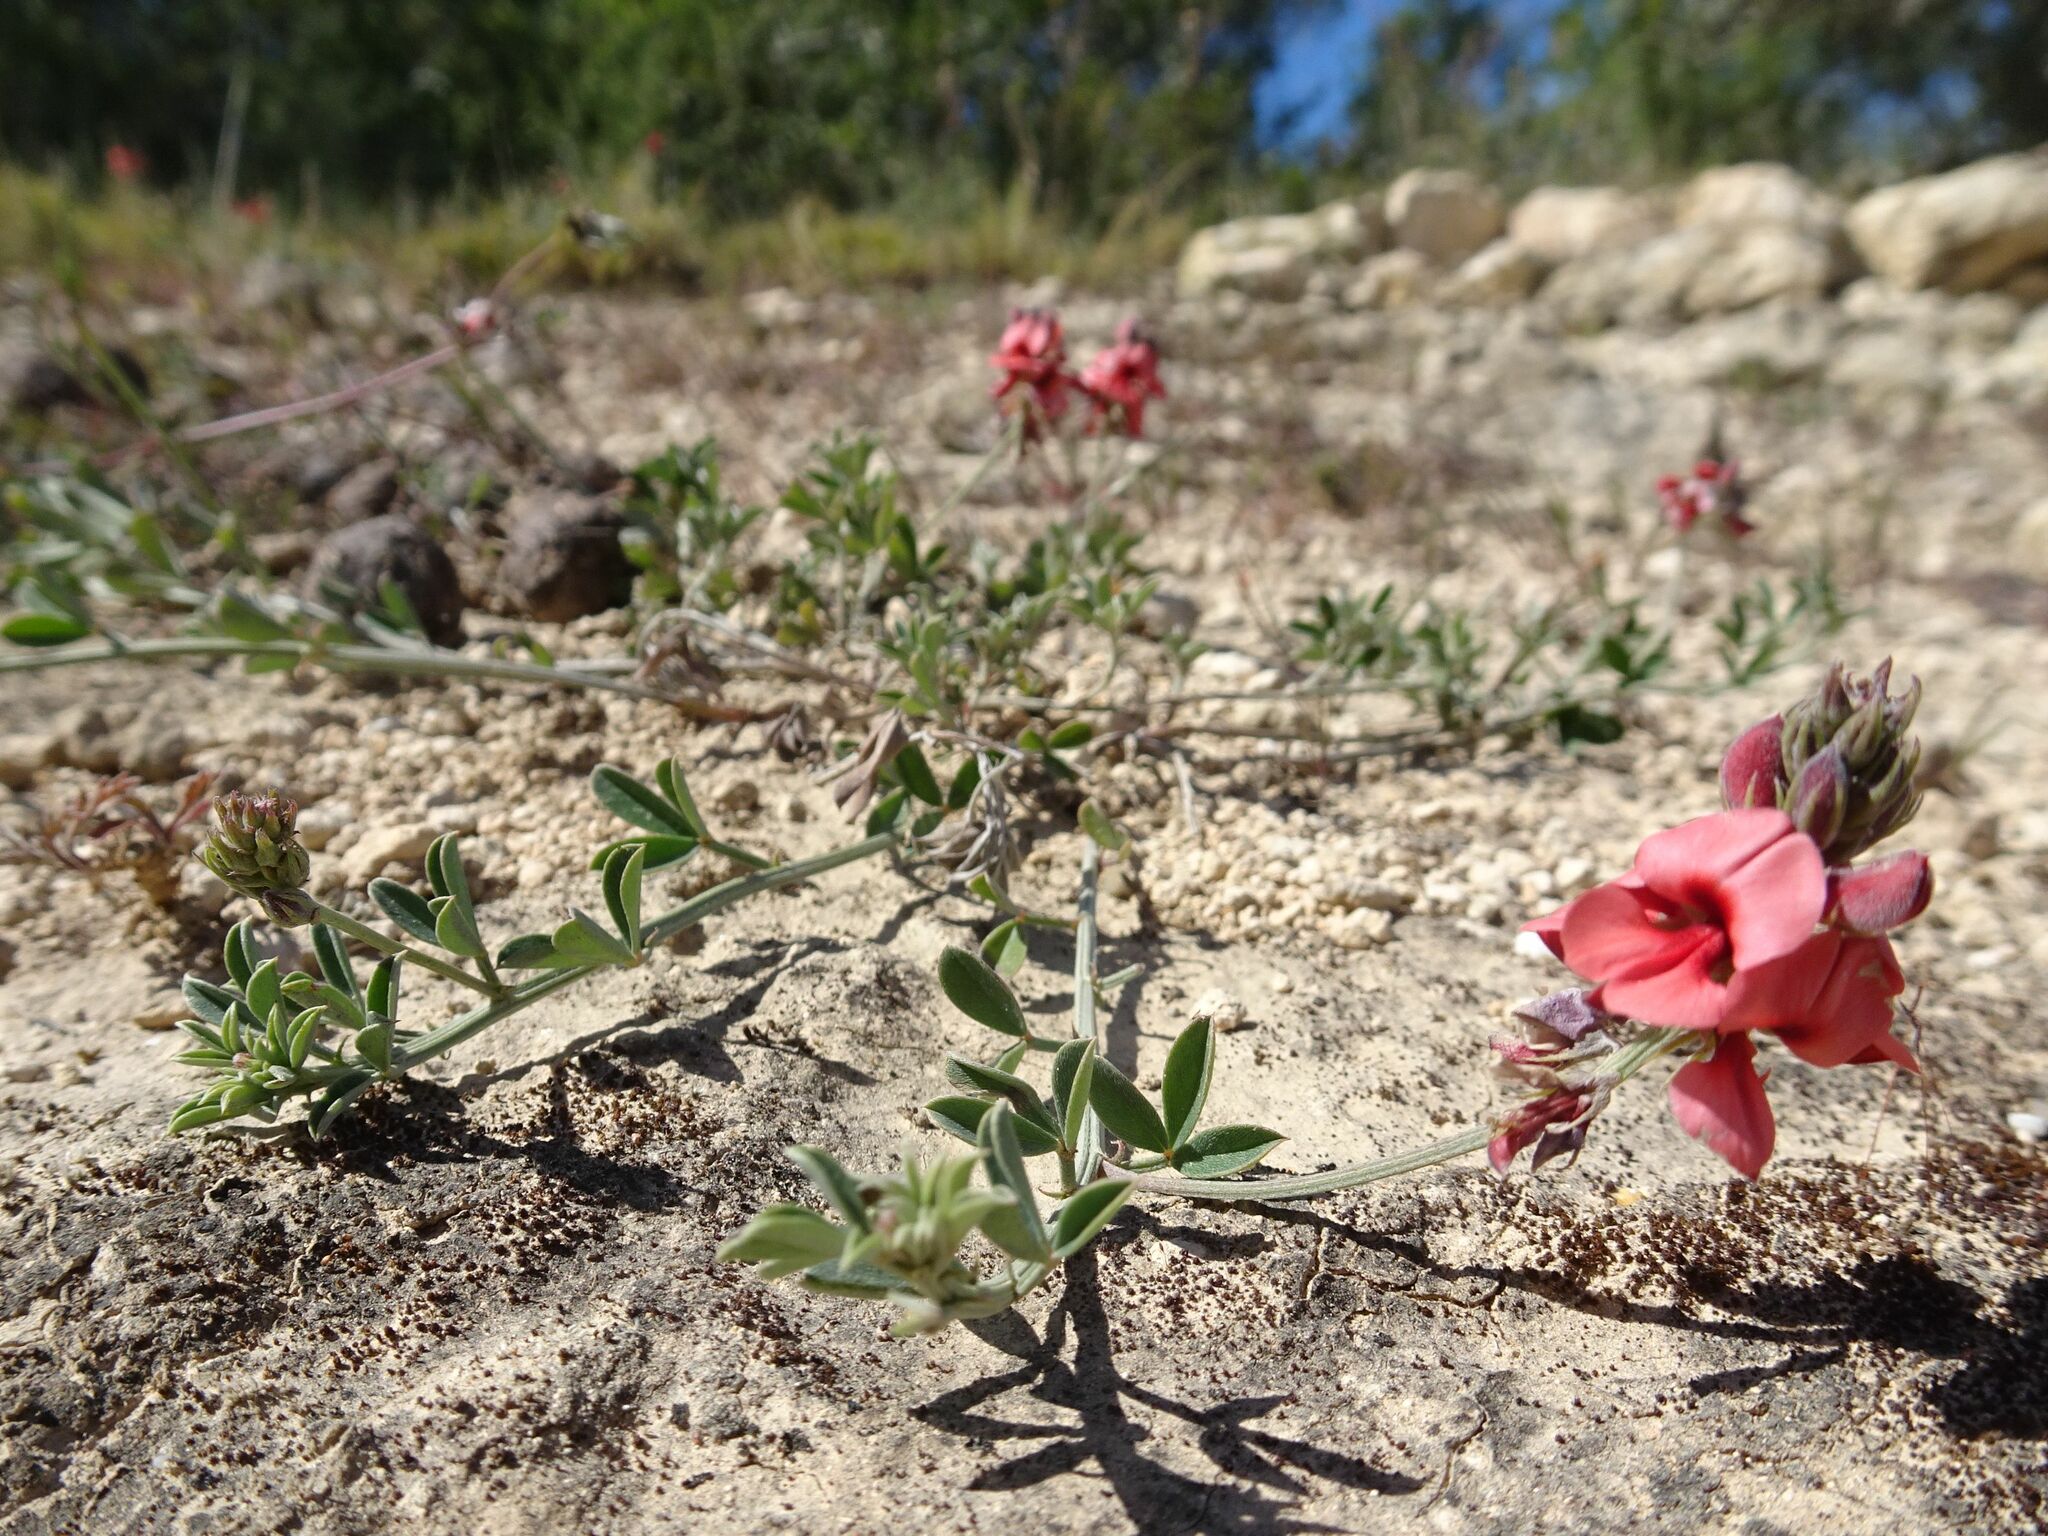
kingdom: Plantae
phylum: Tracheophyta
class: Magnoliopsida
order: Fabales
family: Fabaceae
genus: Indigofera
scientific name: Indigofera heterophylla
